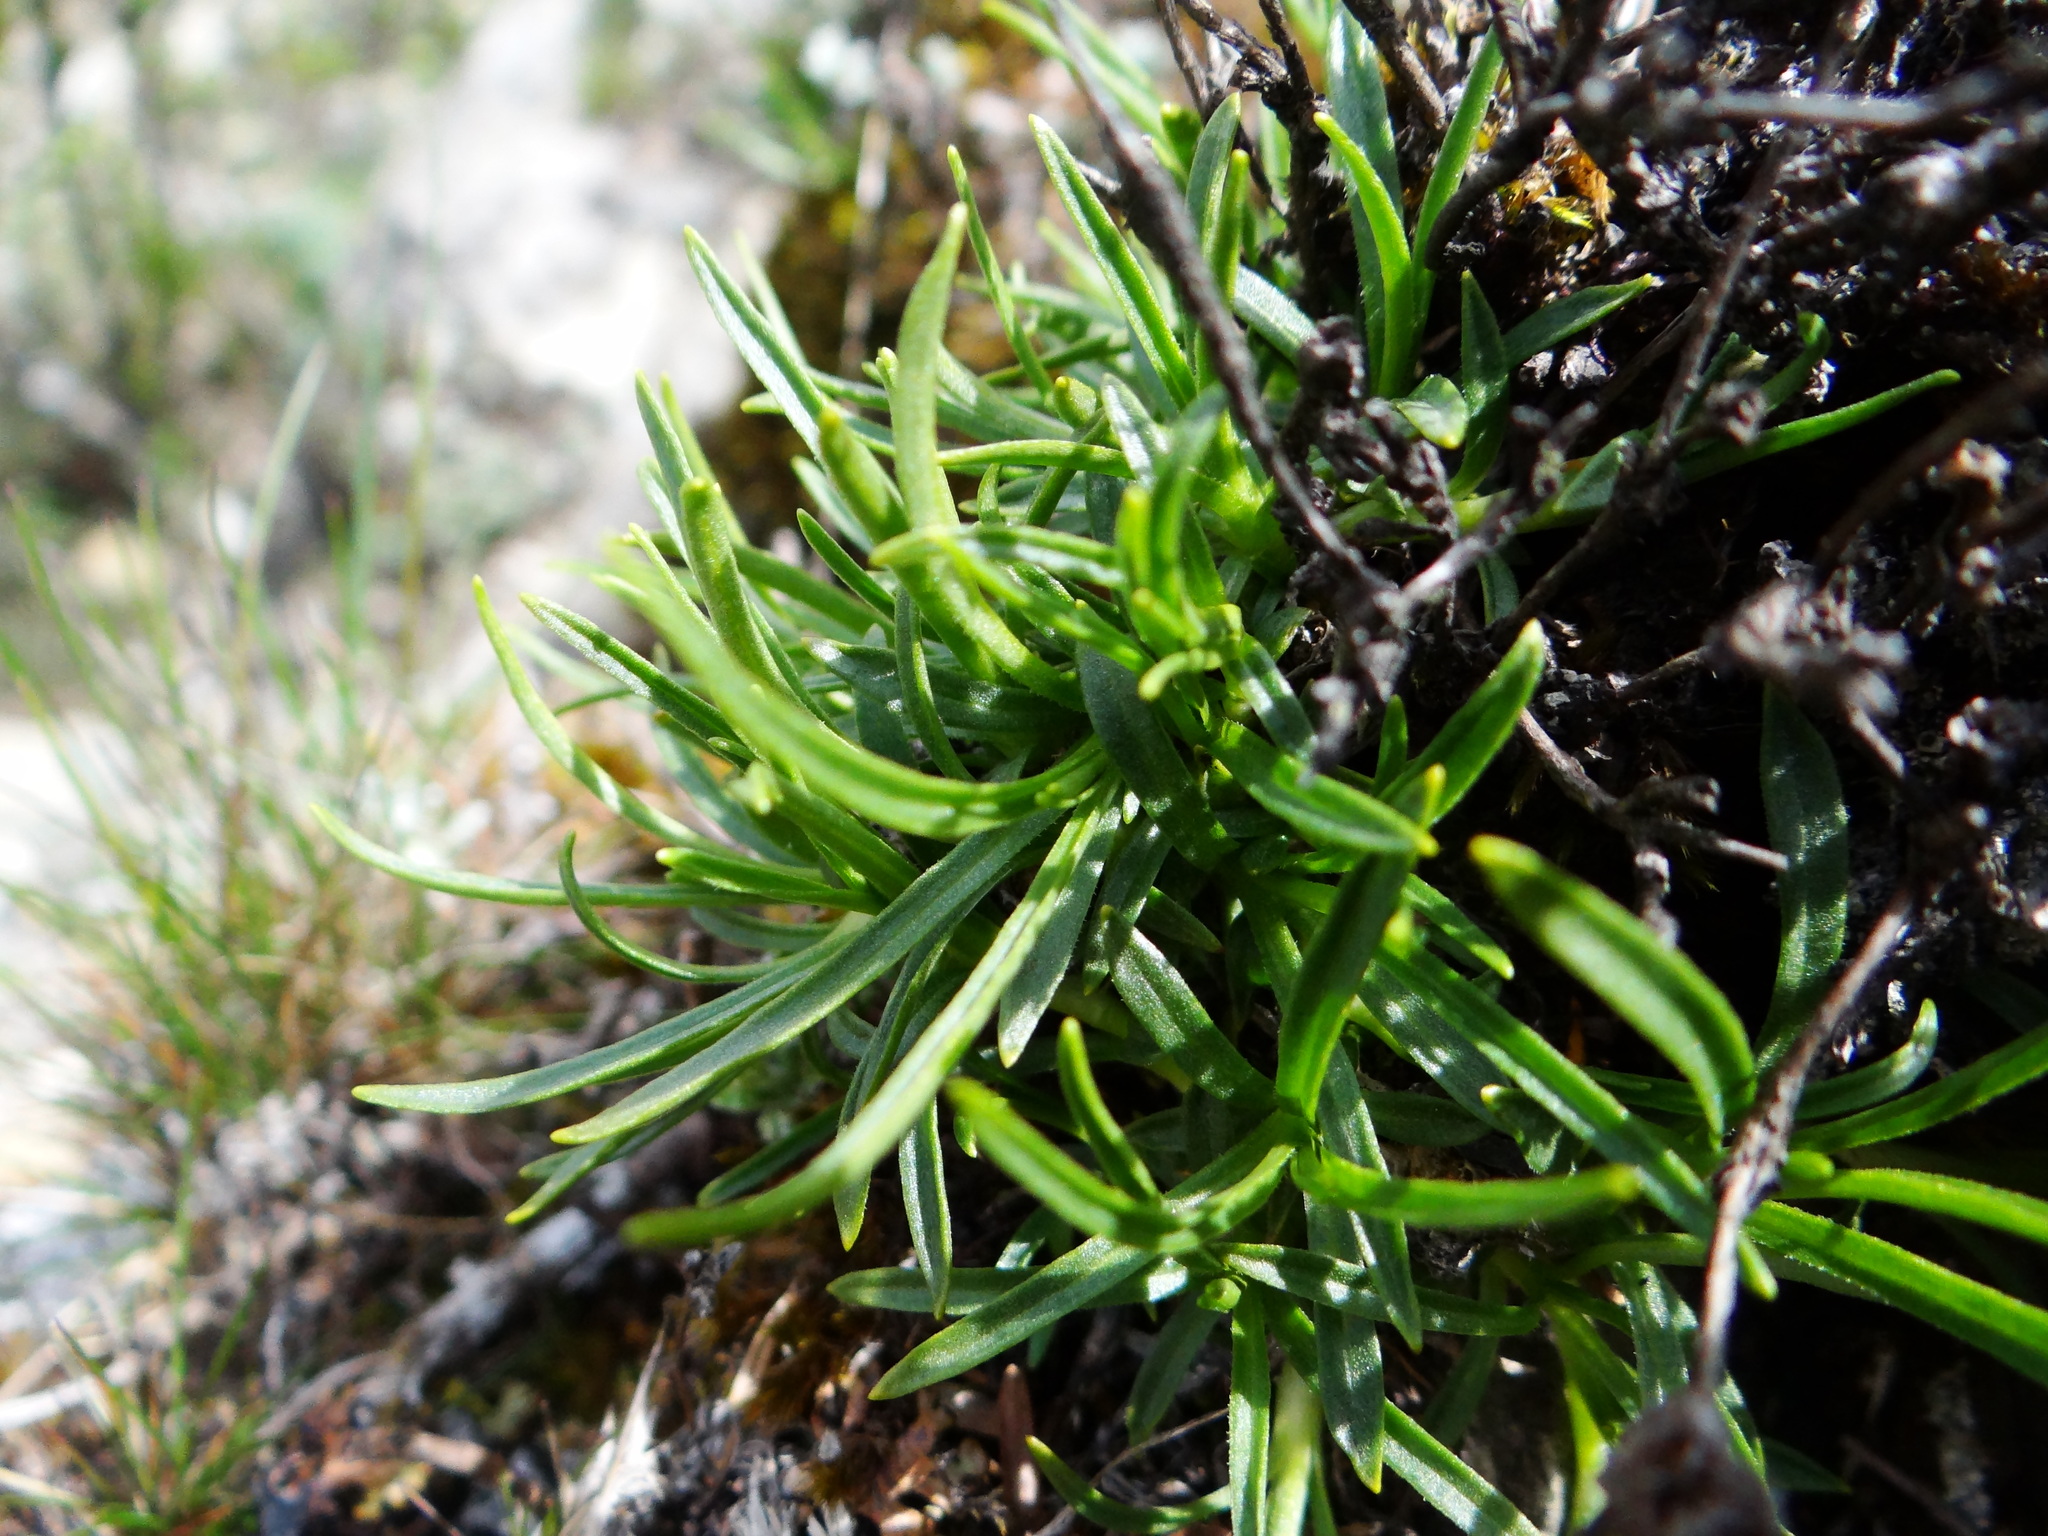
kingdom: Plantae
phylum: Tracheophyta
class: Magnoliopsida
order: Caryophyllales
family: Caryophyllaceae
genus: Silene
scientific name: Silene ohwii
